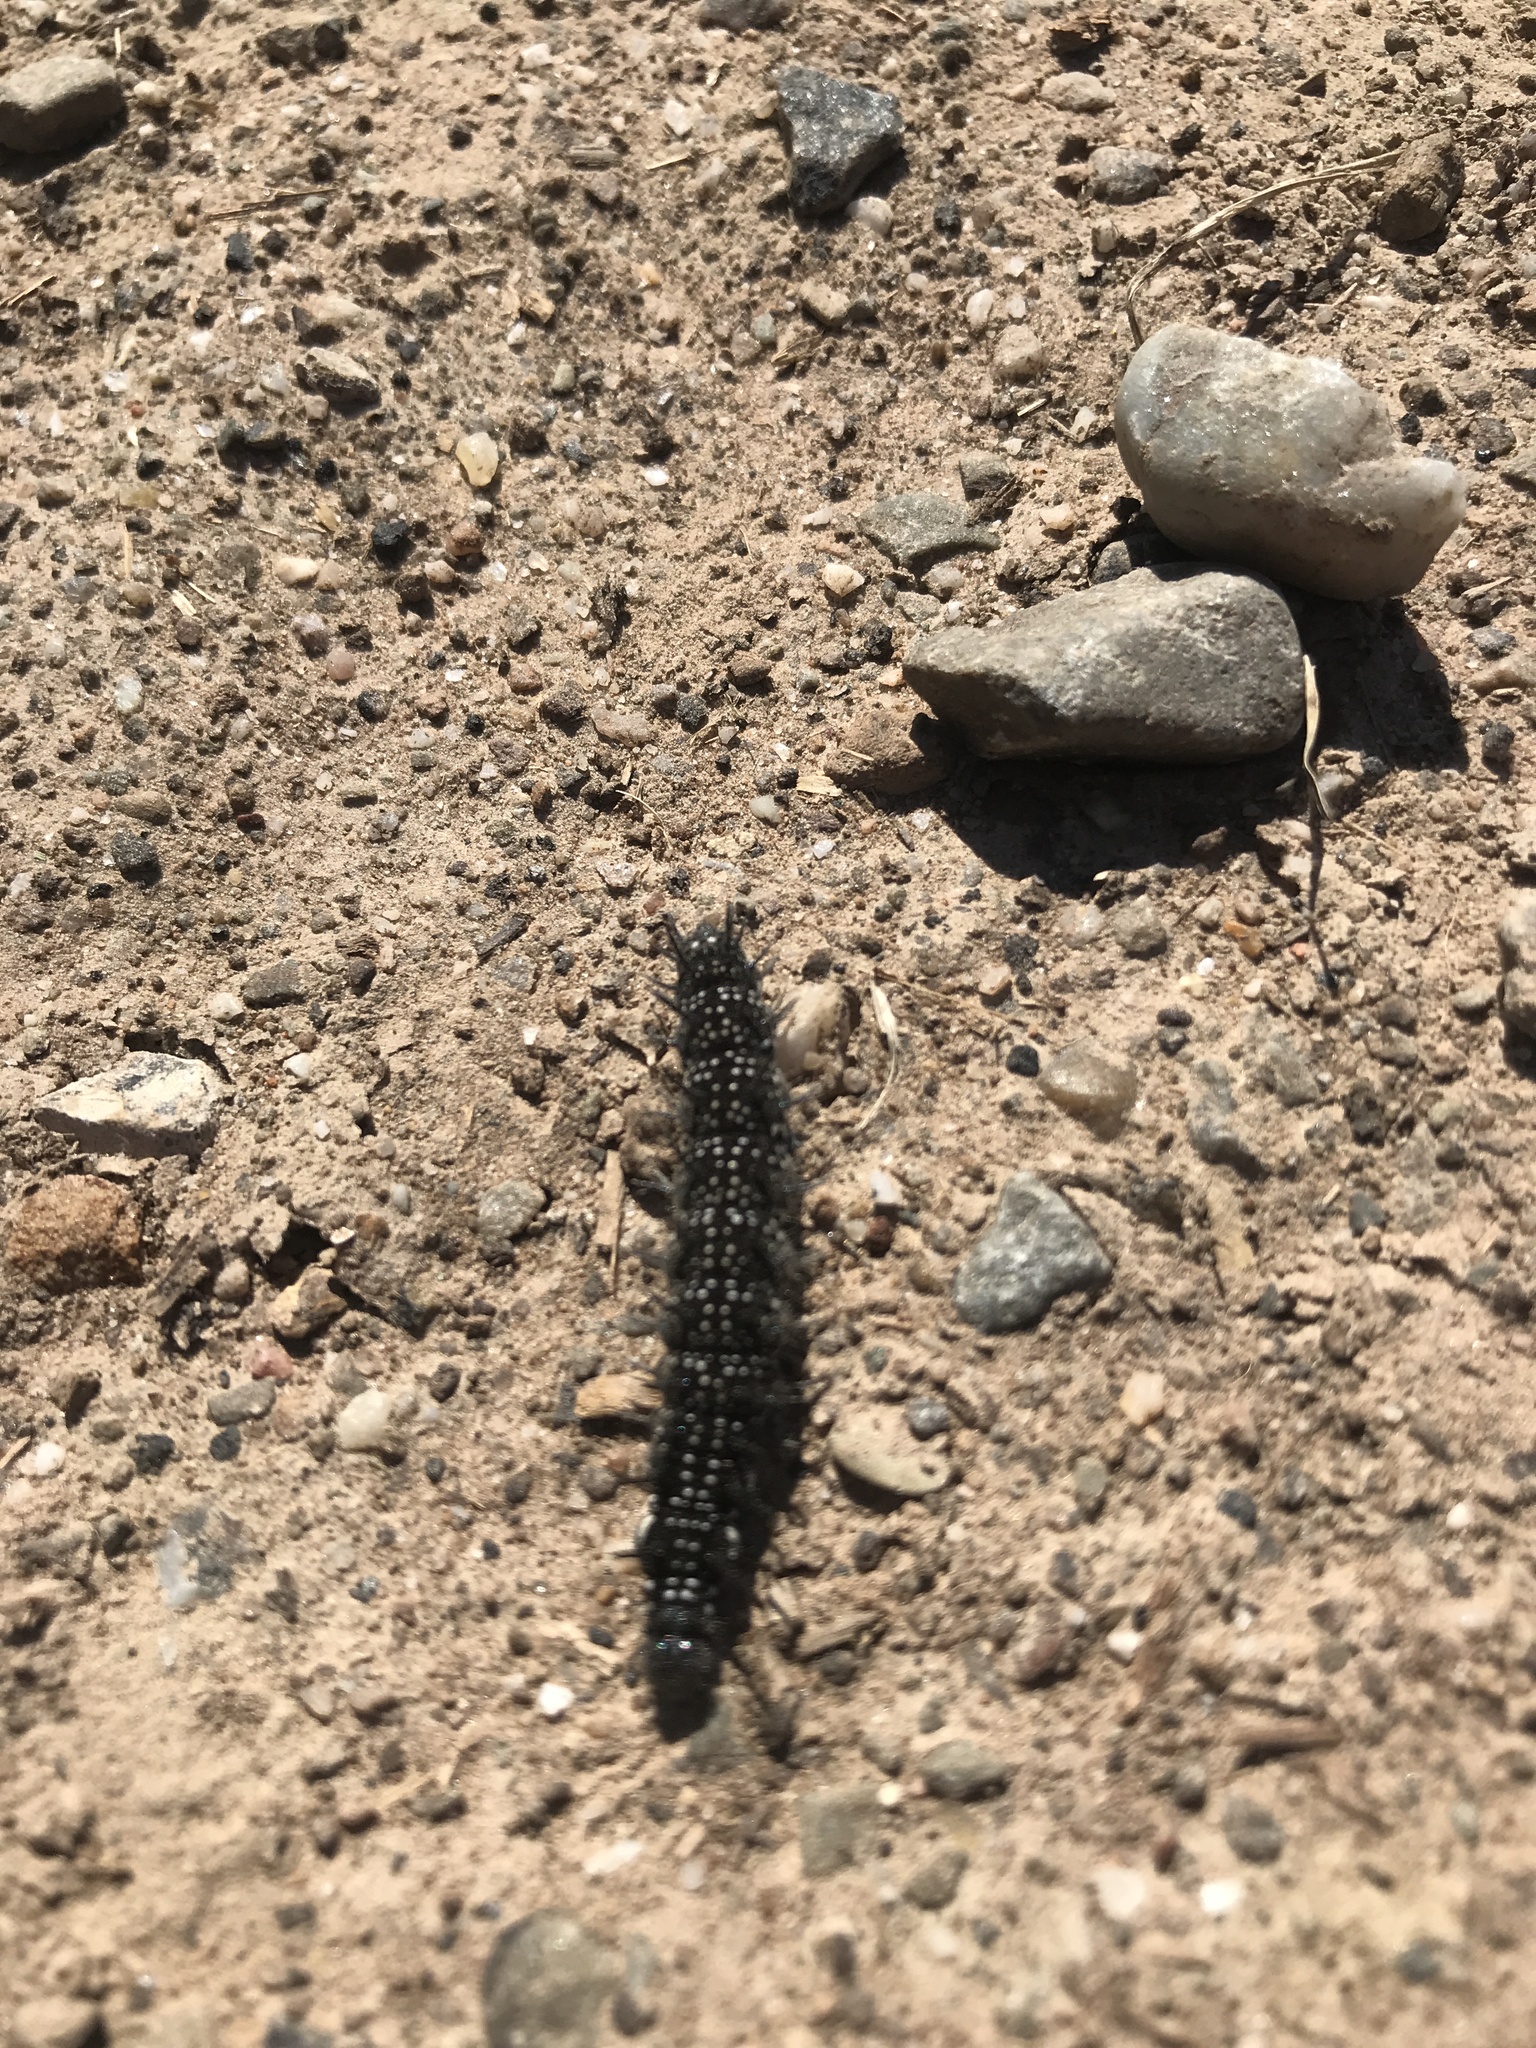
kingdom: Animalia
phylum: Arthropoda
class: Insecta
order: Lepidoptera
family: Nymphalidae
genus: Aglais
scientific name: Aglais io
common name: Peacock
